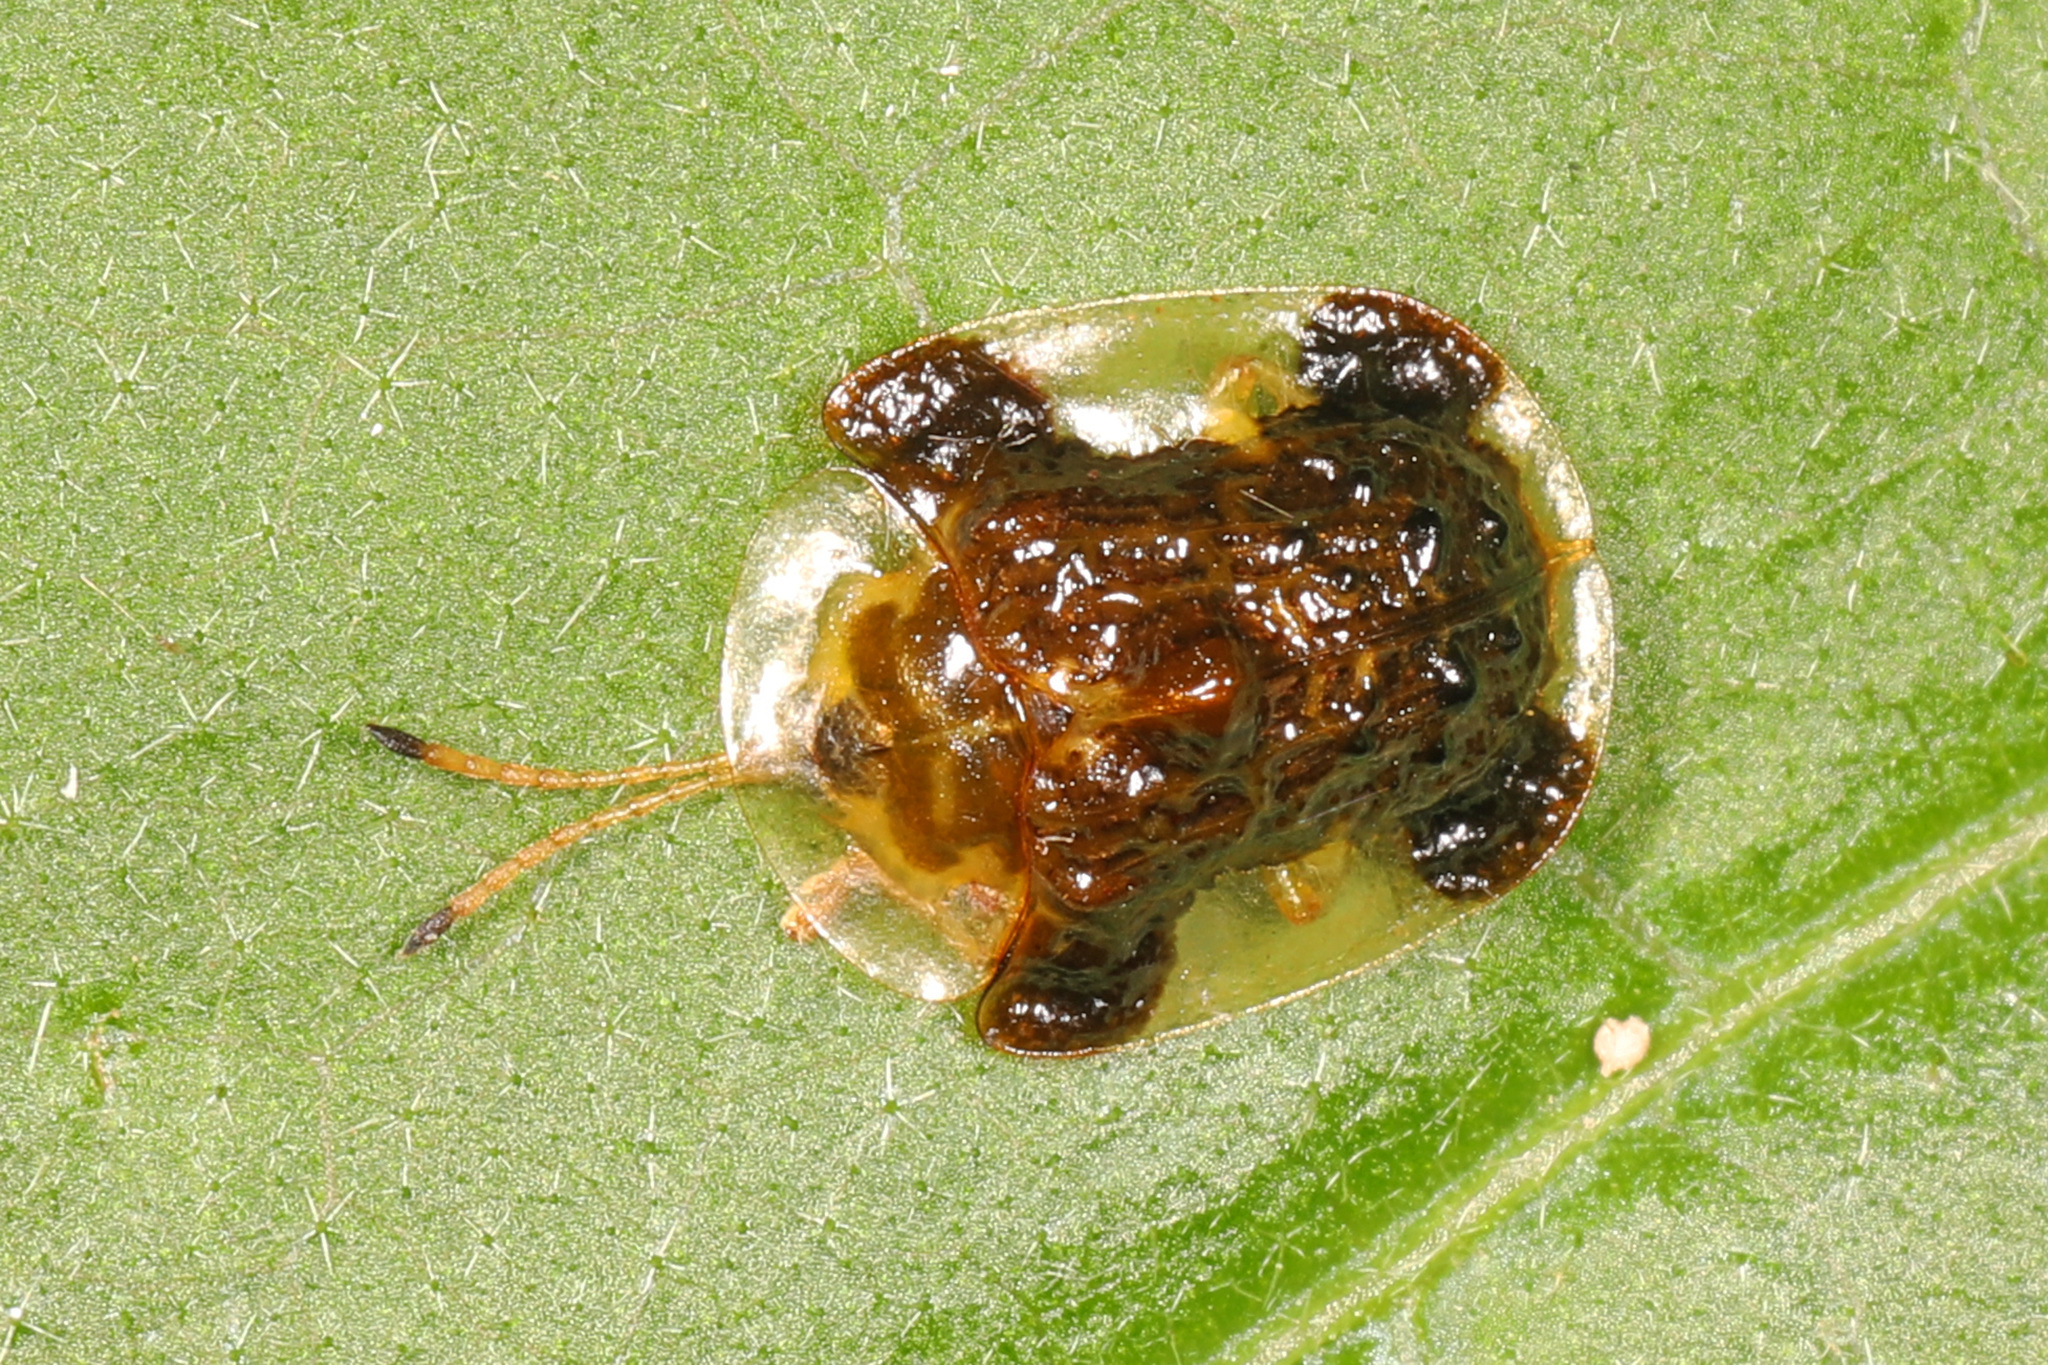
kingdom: Animalia
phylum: Arthropoda
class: Insecta
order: Coleoptera
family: Chrysomelidae
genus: Helocassis
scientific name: Helocassis clavata
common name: Clavate tortoise beetle
